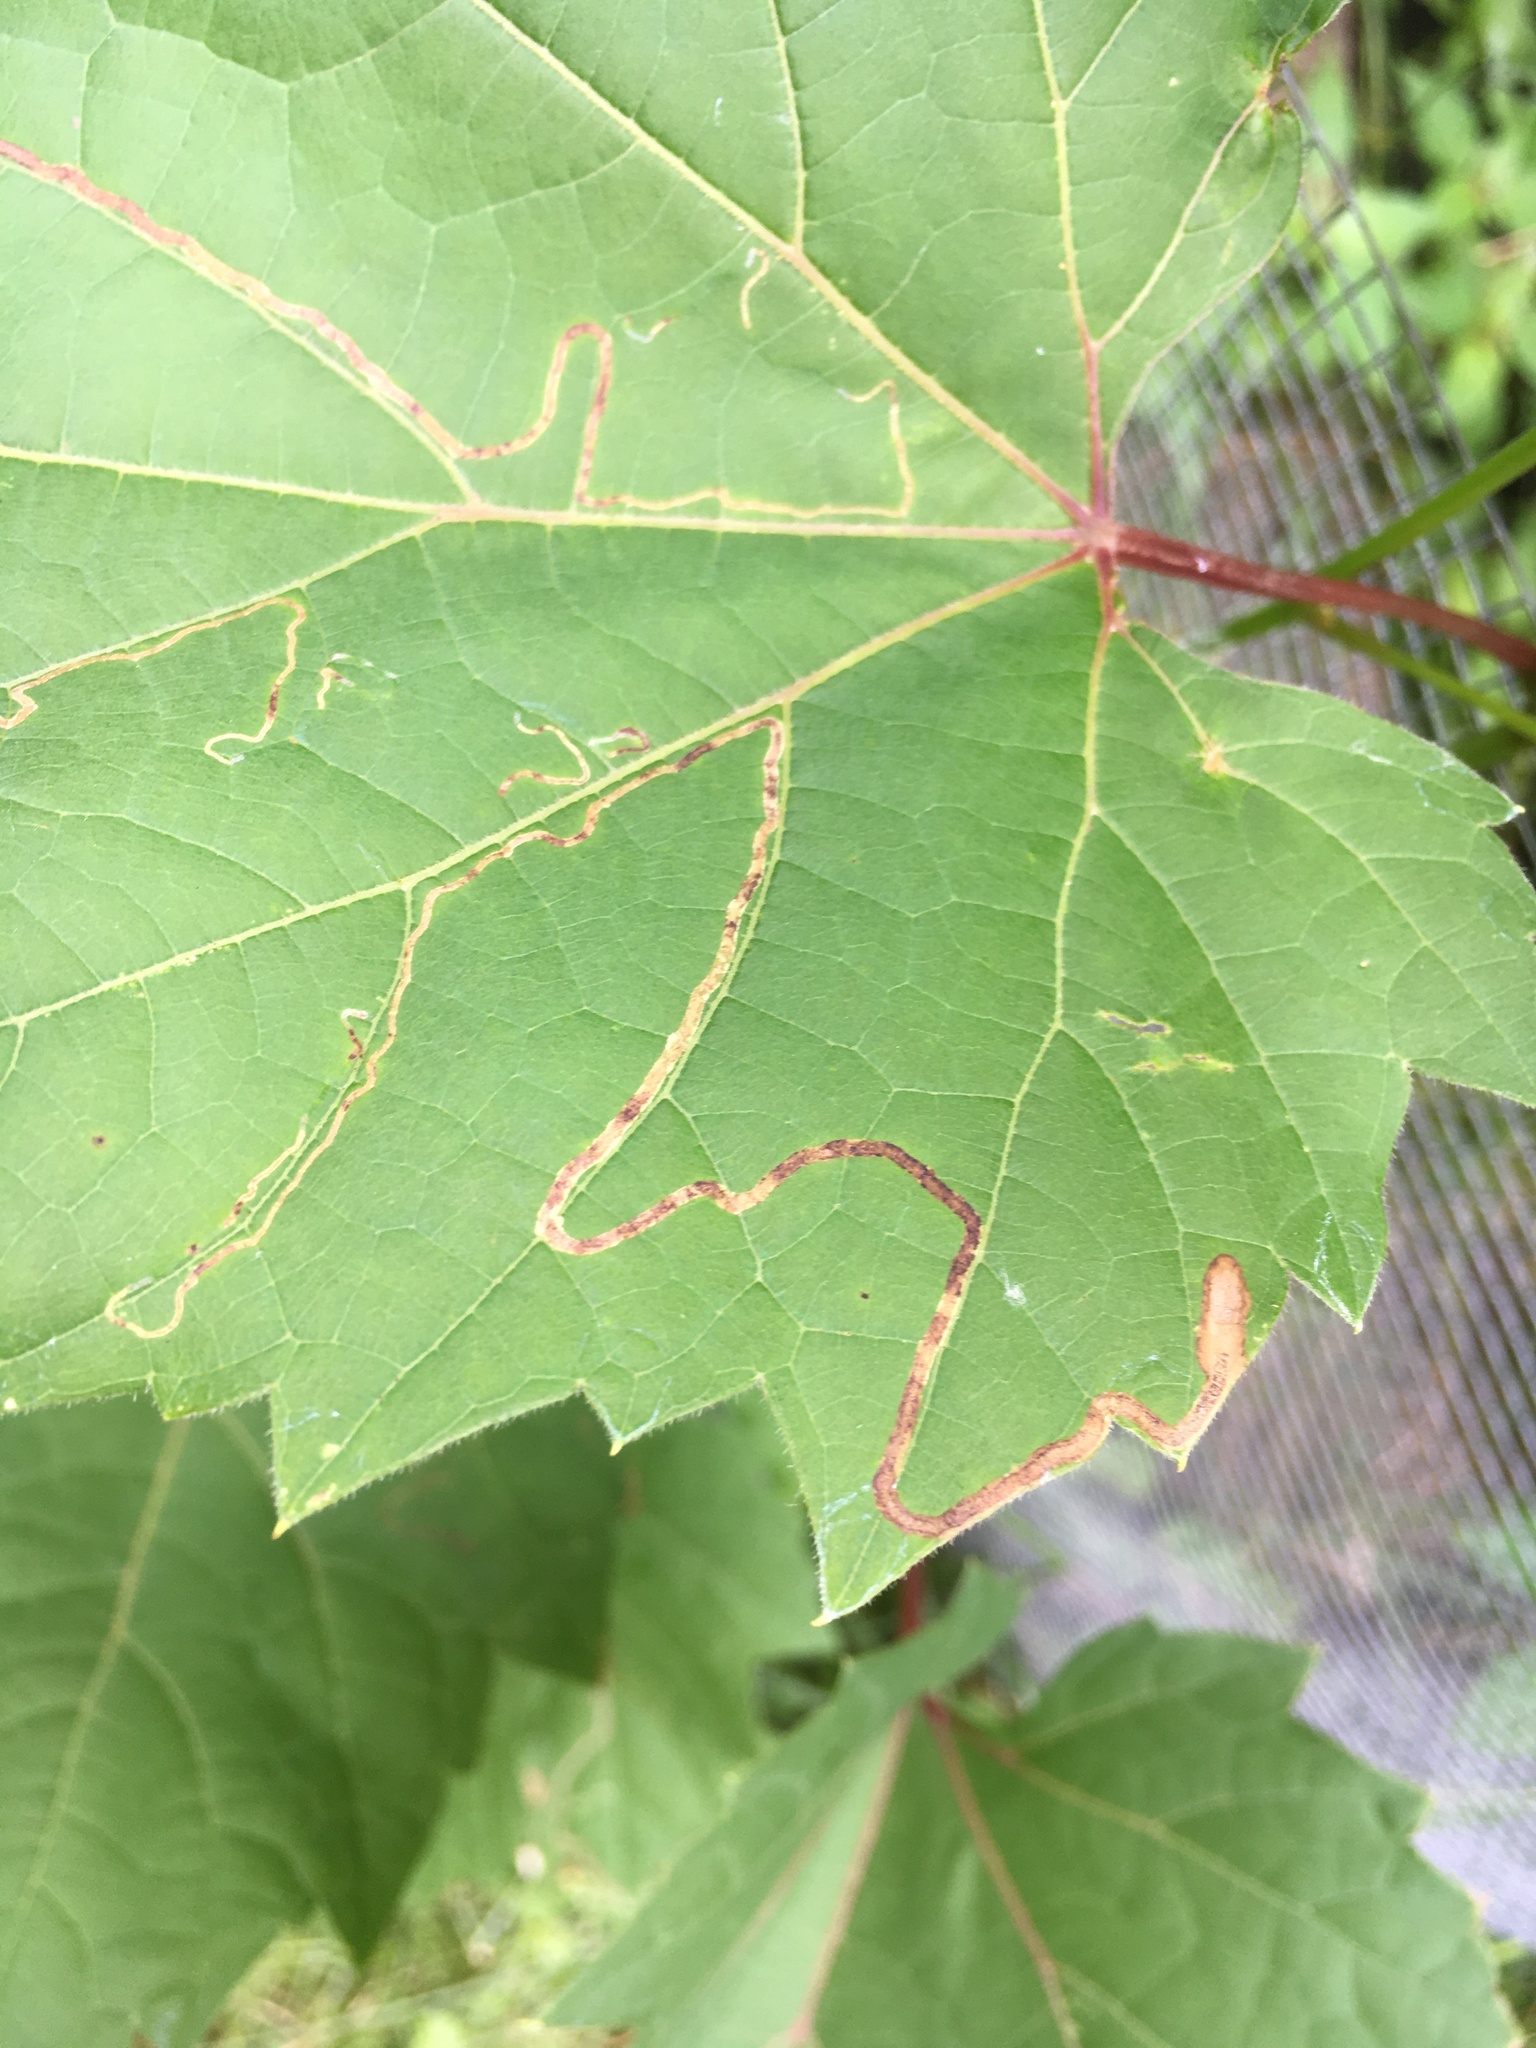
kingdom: Animalia
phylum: Arthropoda
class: Insecta
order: Lepidoptera
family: Gracillariidae
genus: Phyllocnistis
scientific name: Phyllocnistis vitifoliella
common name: Grape leaf-miner moth
